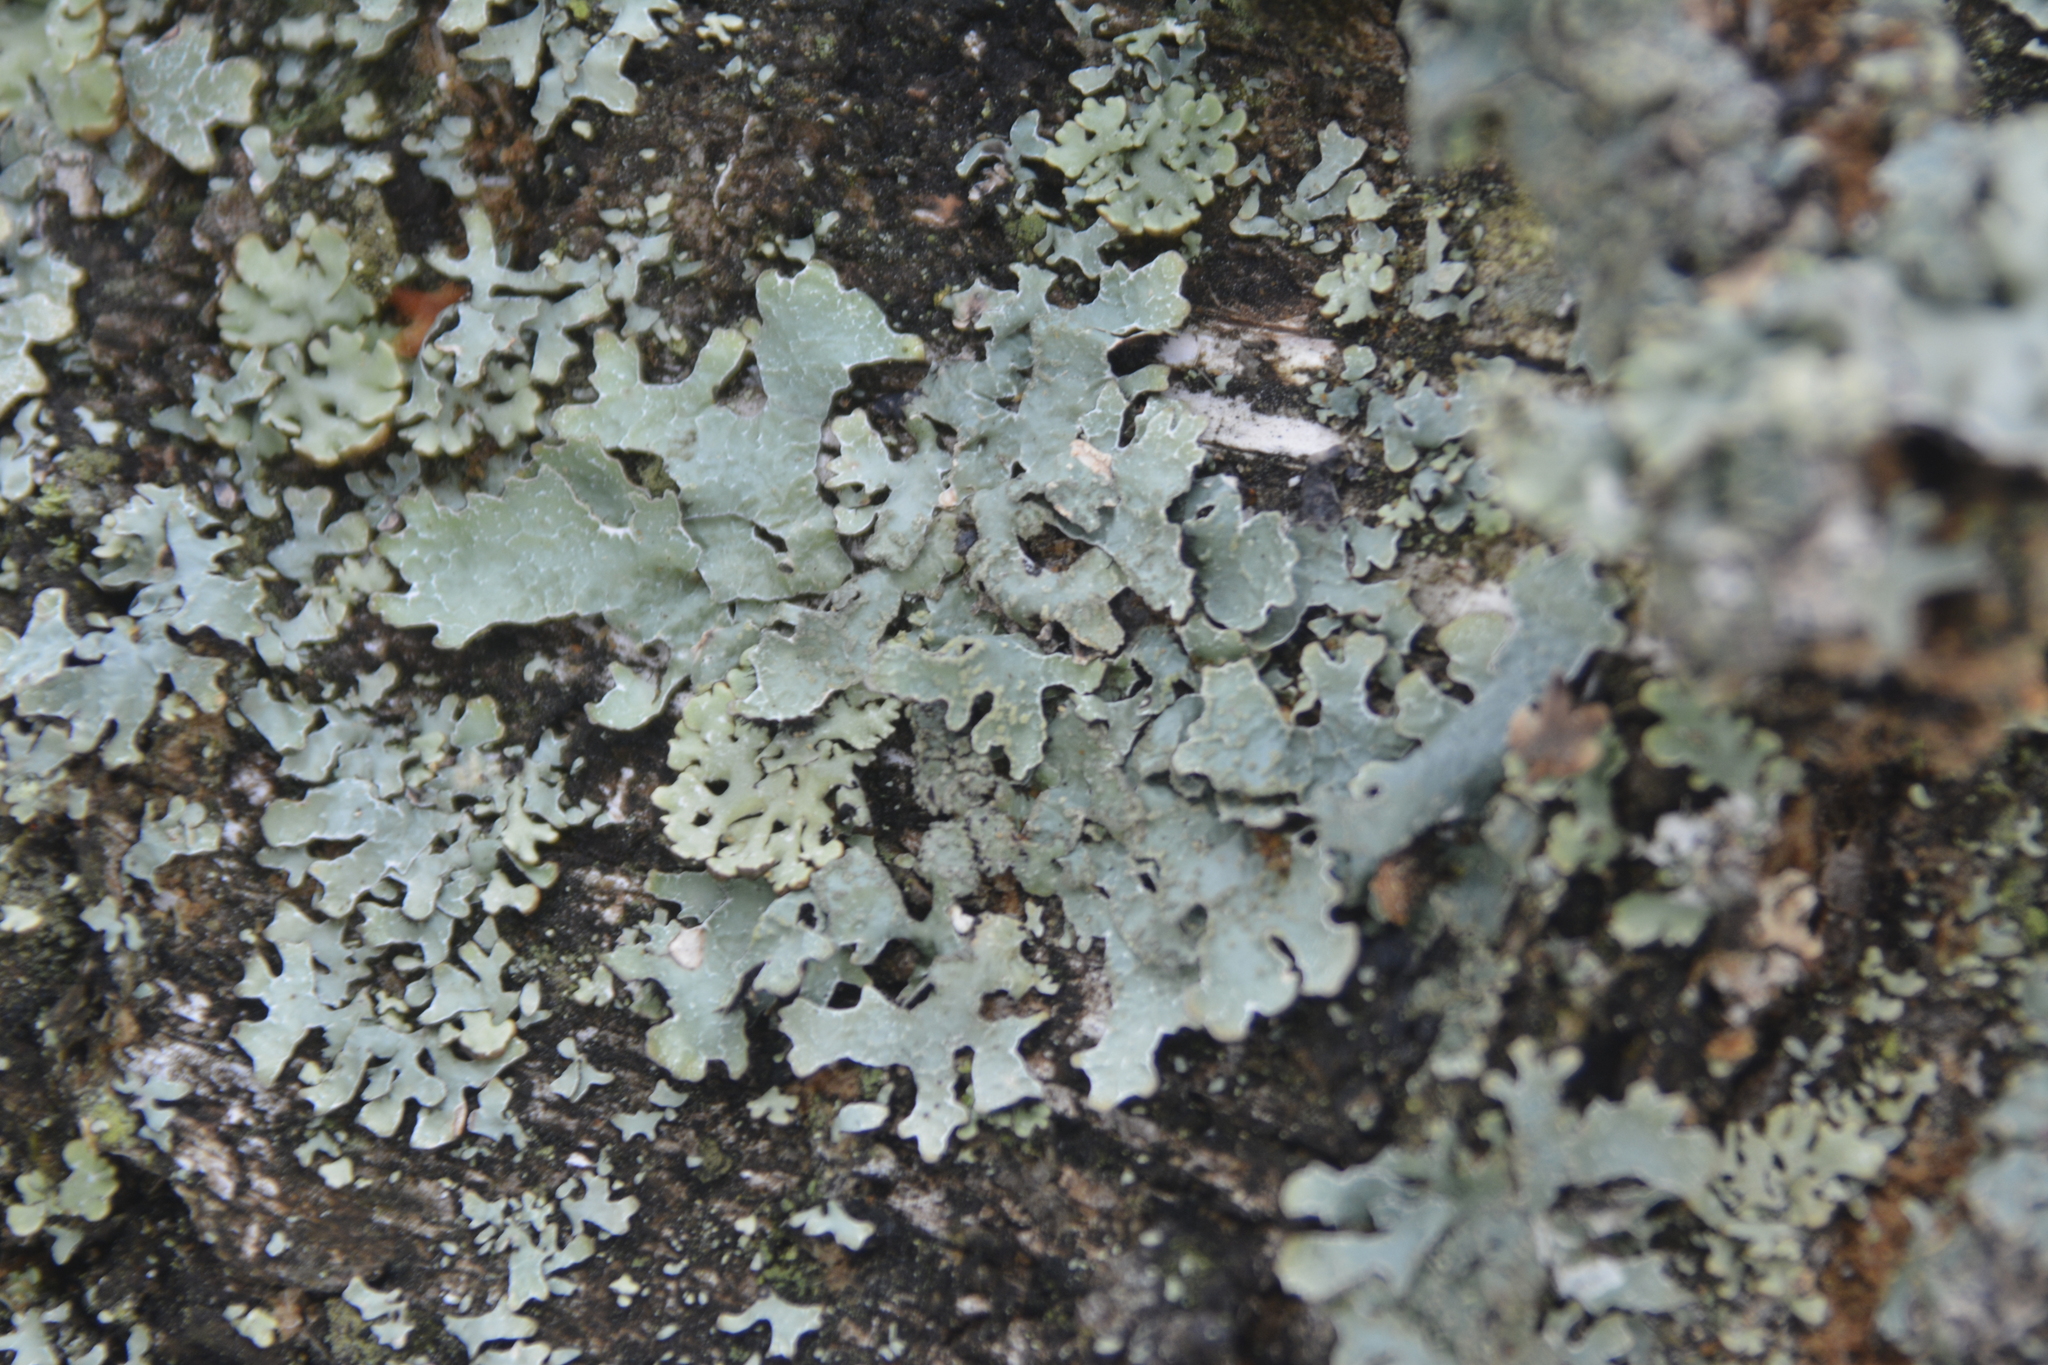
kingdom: Fungi
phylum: Ascomycota
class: Lecanoromycetes
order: Lecanorales
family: Parmeliaceae
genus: Parmelia
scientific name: Parmelia sulcata
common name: Netted shield lichen
